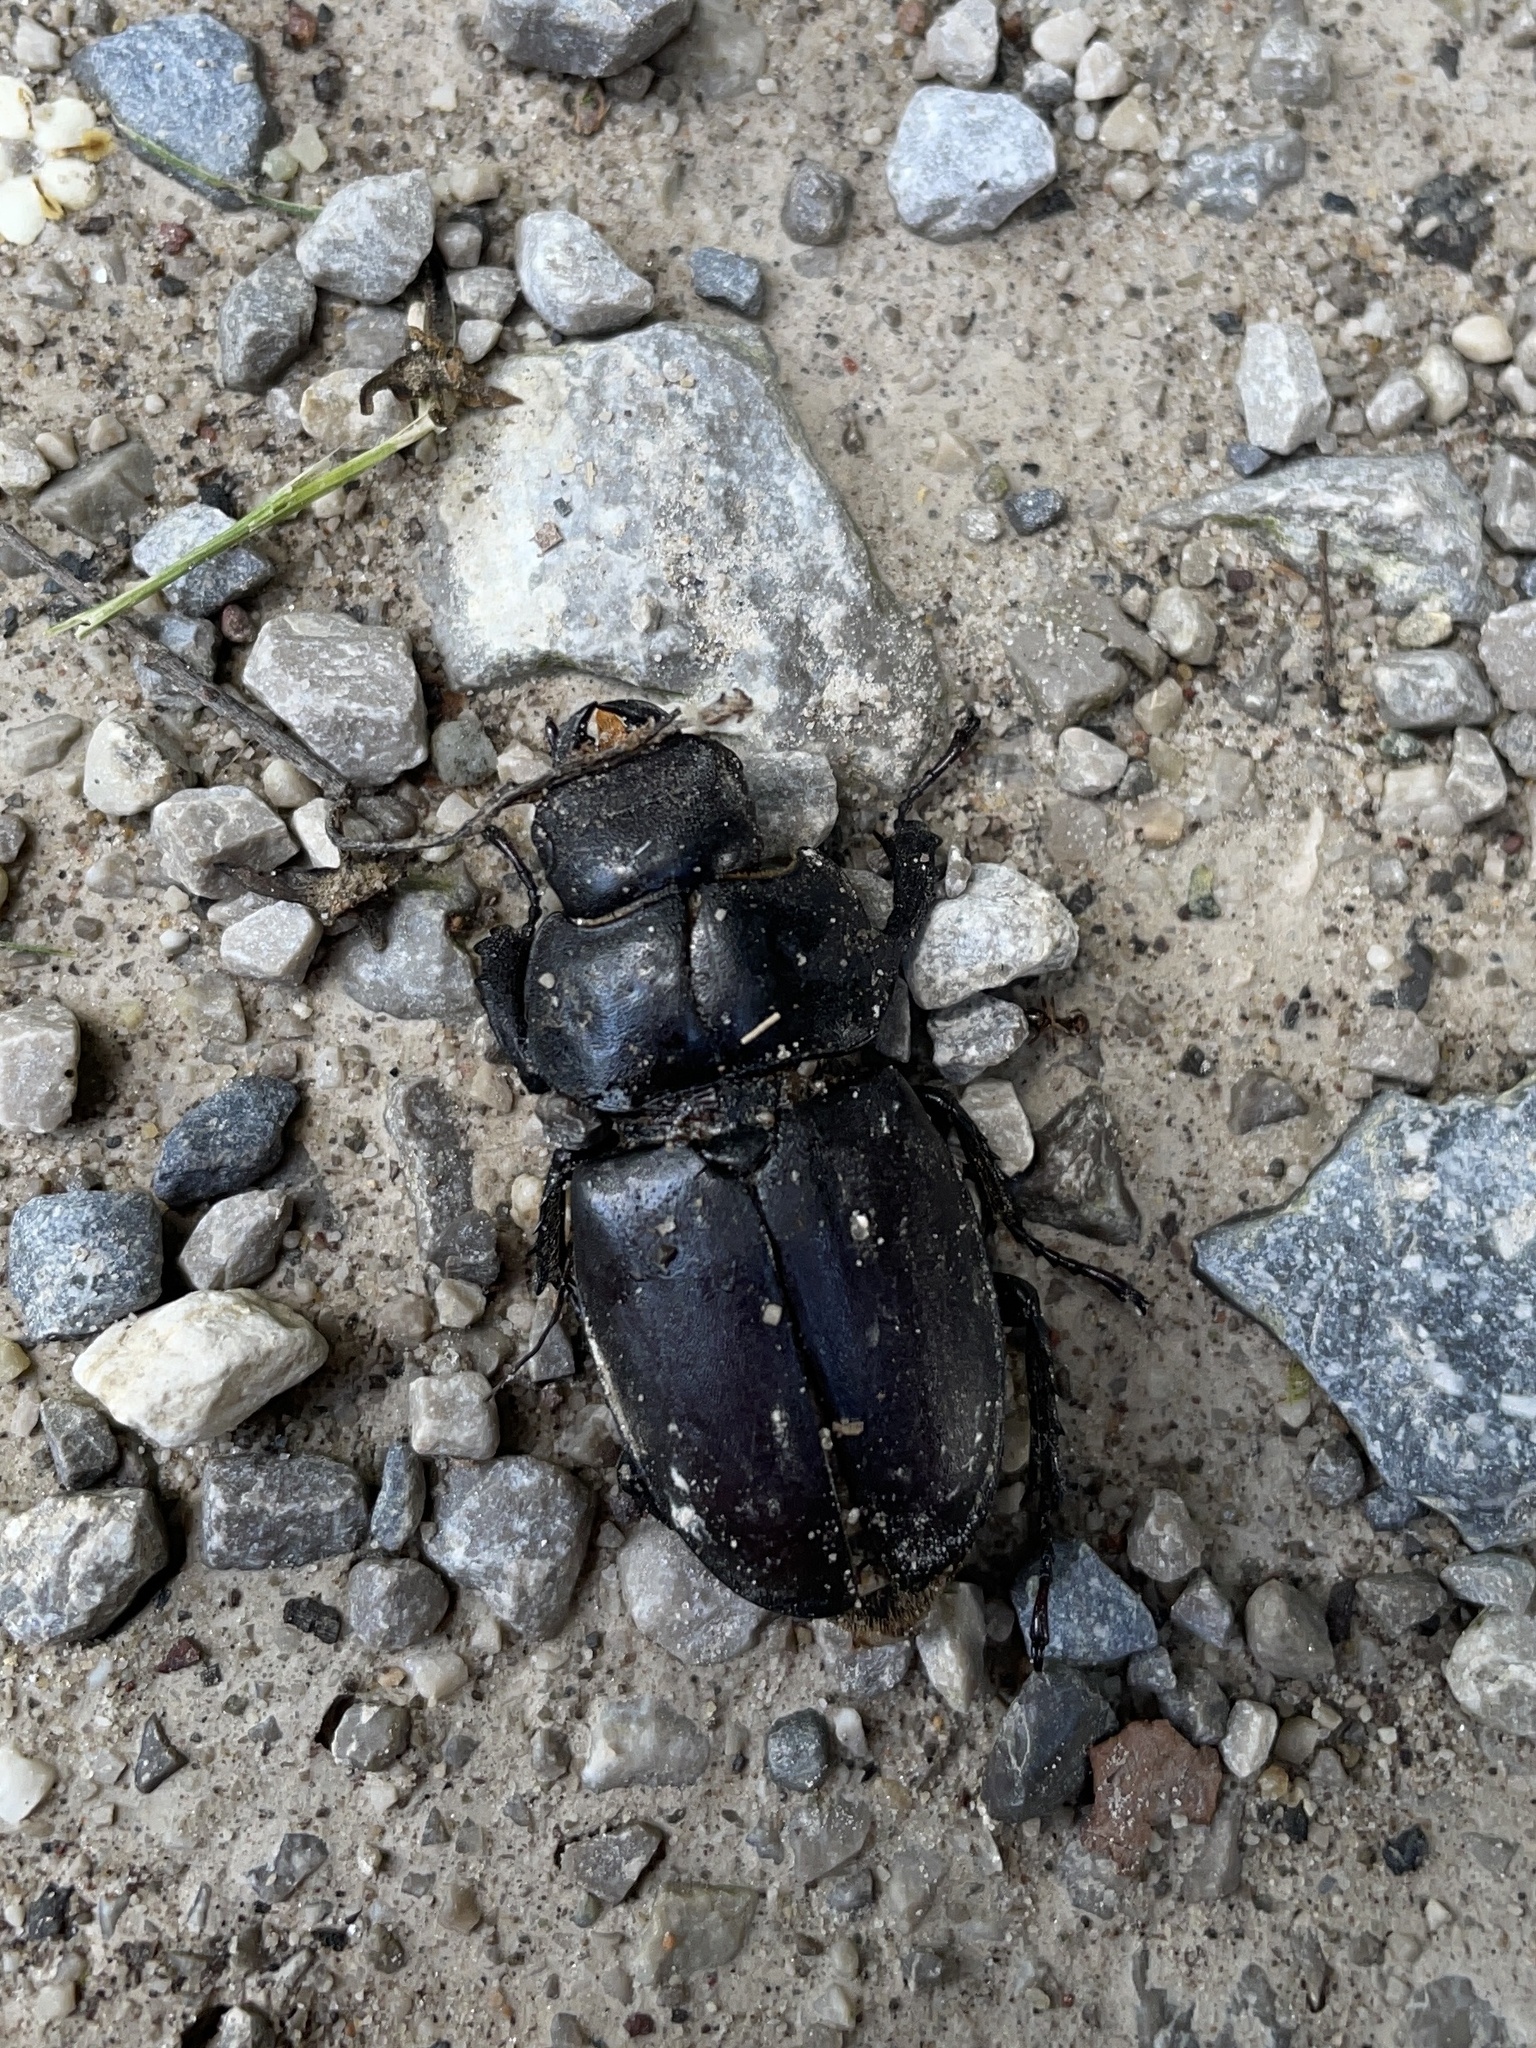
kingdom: Animalia
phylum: Arthropoda
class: Insecta
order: Coleoptera
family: Lucanidae
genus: Lucanus
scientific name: Lucanus cervus
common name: Stag beetle
